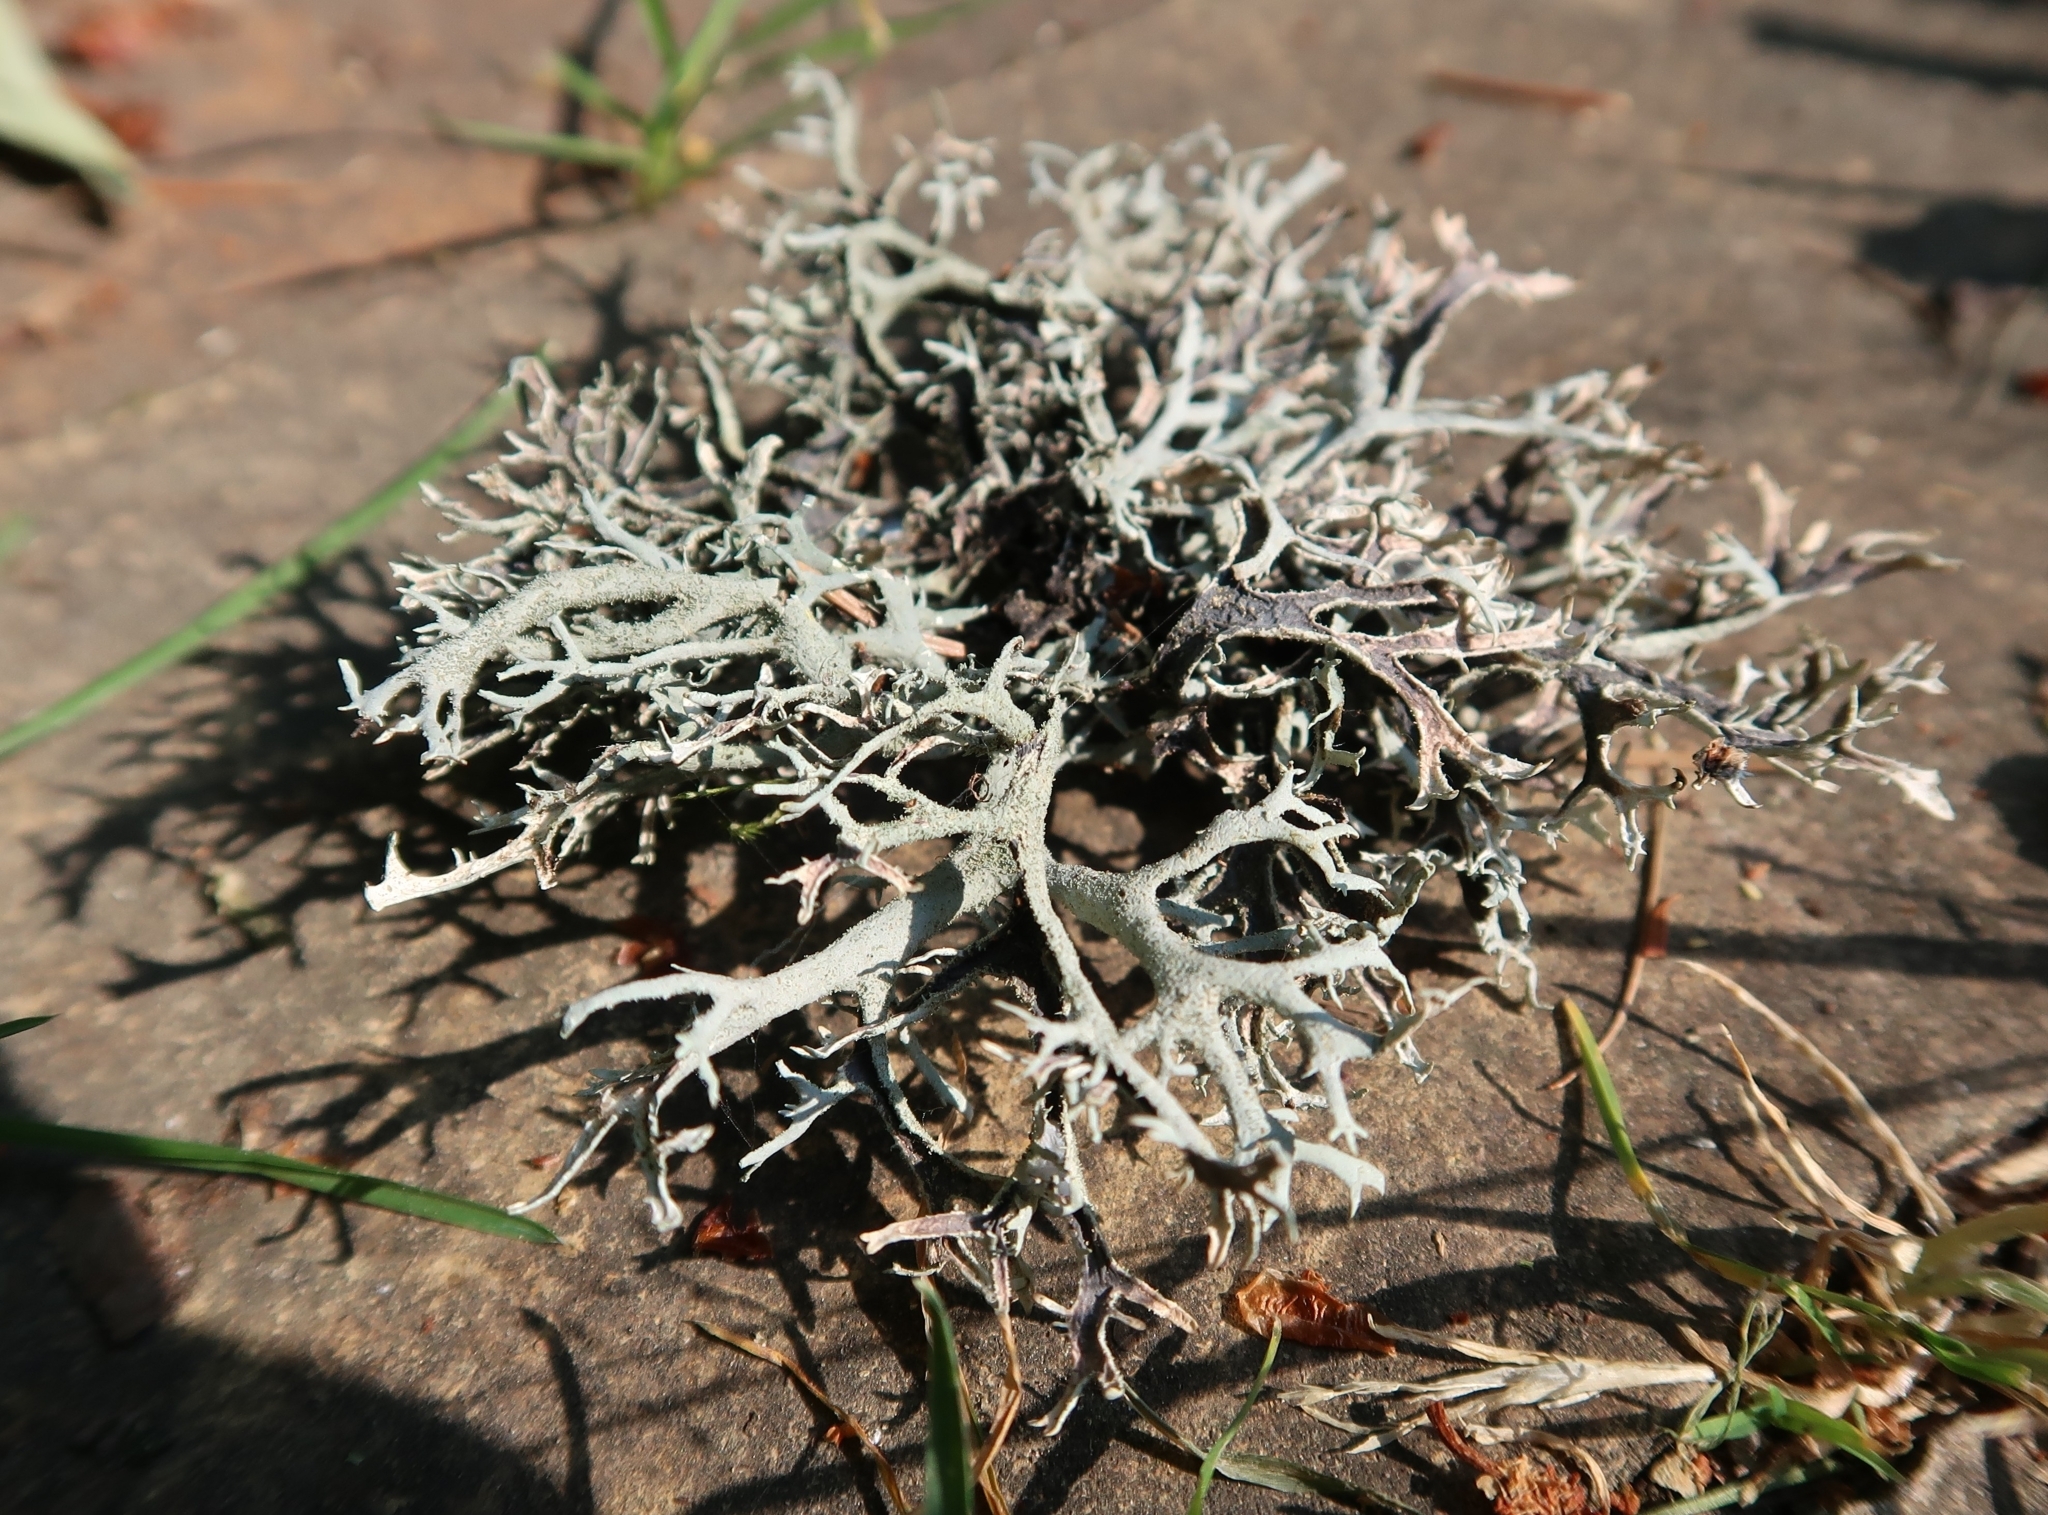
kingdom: Fungi
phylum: Ascomycota
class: Lecanoromycetes
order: Lecanorales
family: Parmeliaceae
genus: Pseudevernia
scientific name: Pseudevernia furfuracea
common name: Tree moss
